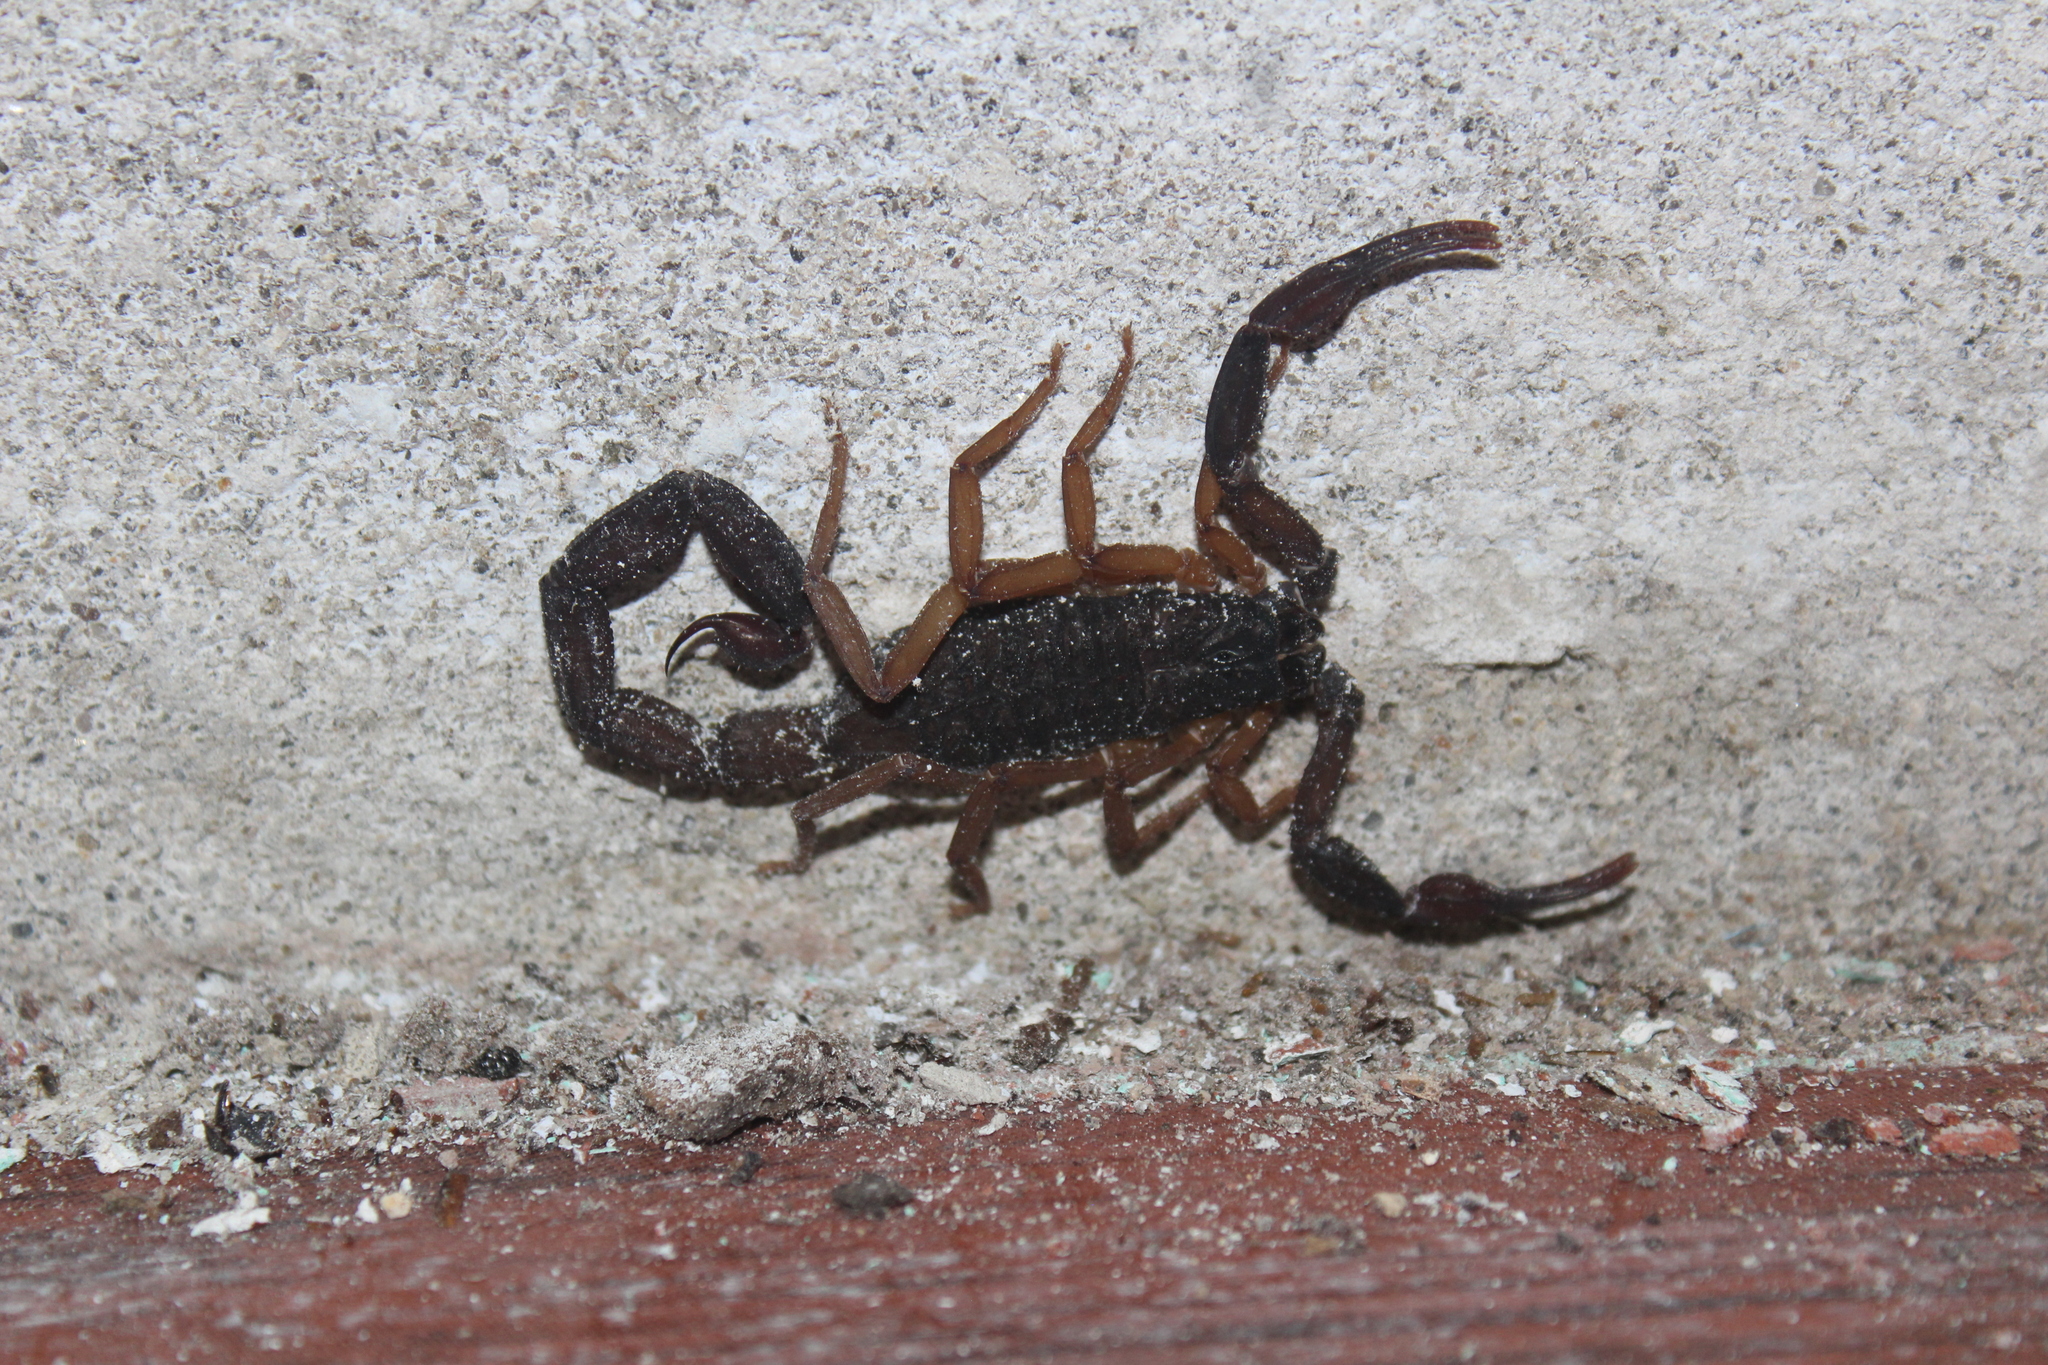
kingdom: Animalia
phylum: Arthropoda
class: Arachnida
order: Scorpiones
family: Buthidae
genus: Centruroides
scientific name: Centruroides gracilis
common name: Scorpions
